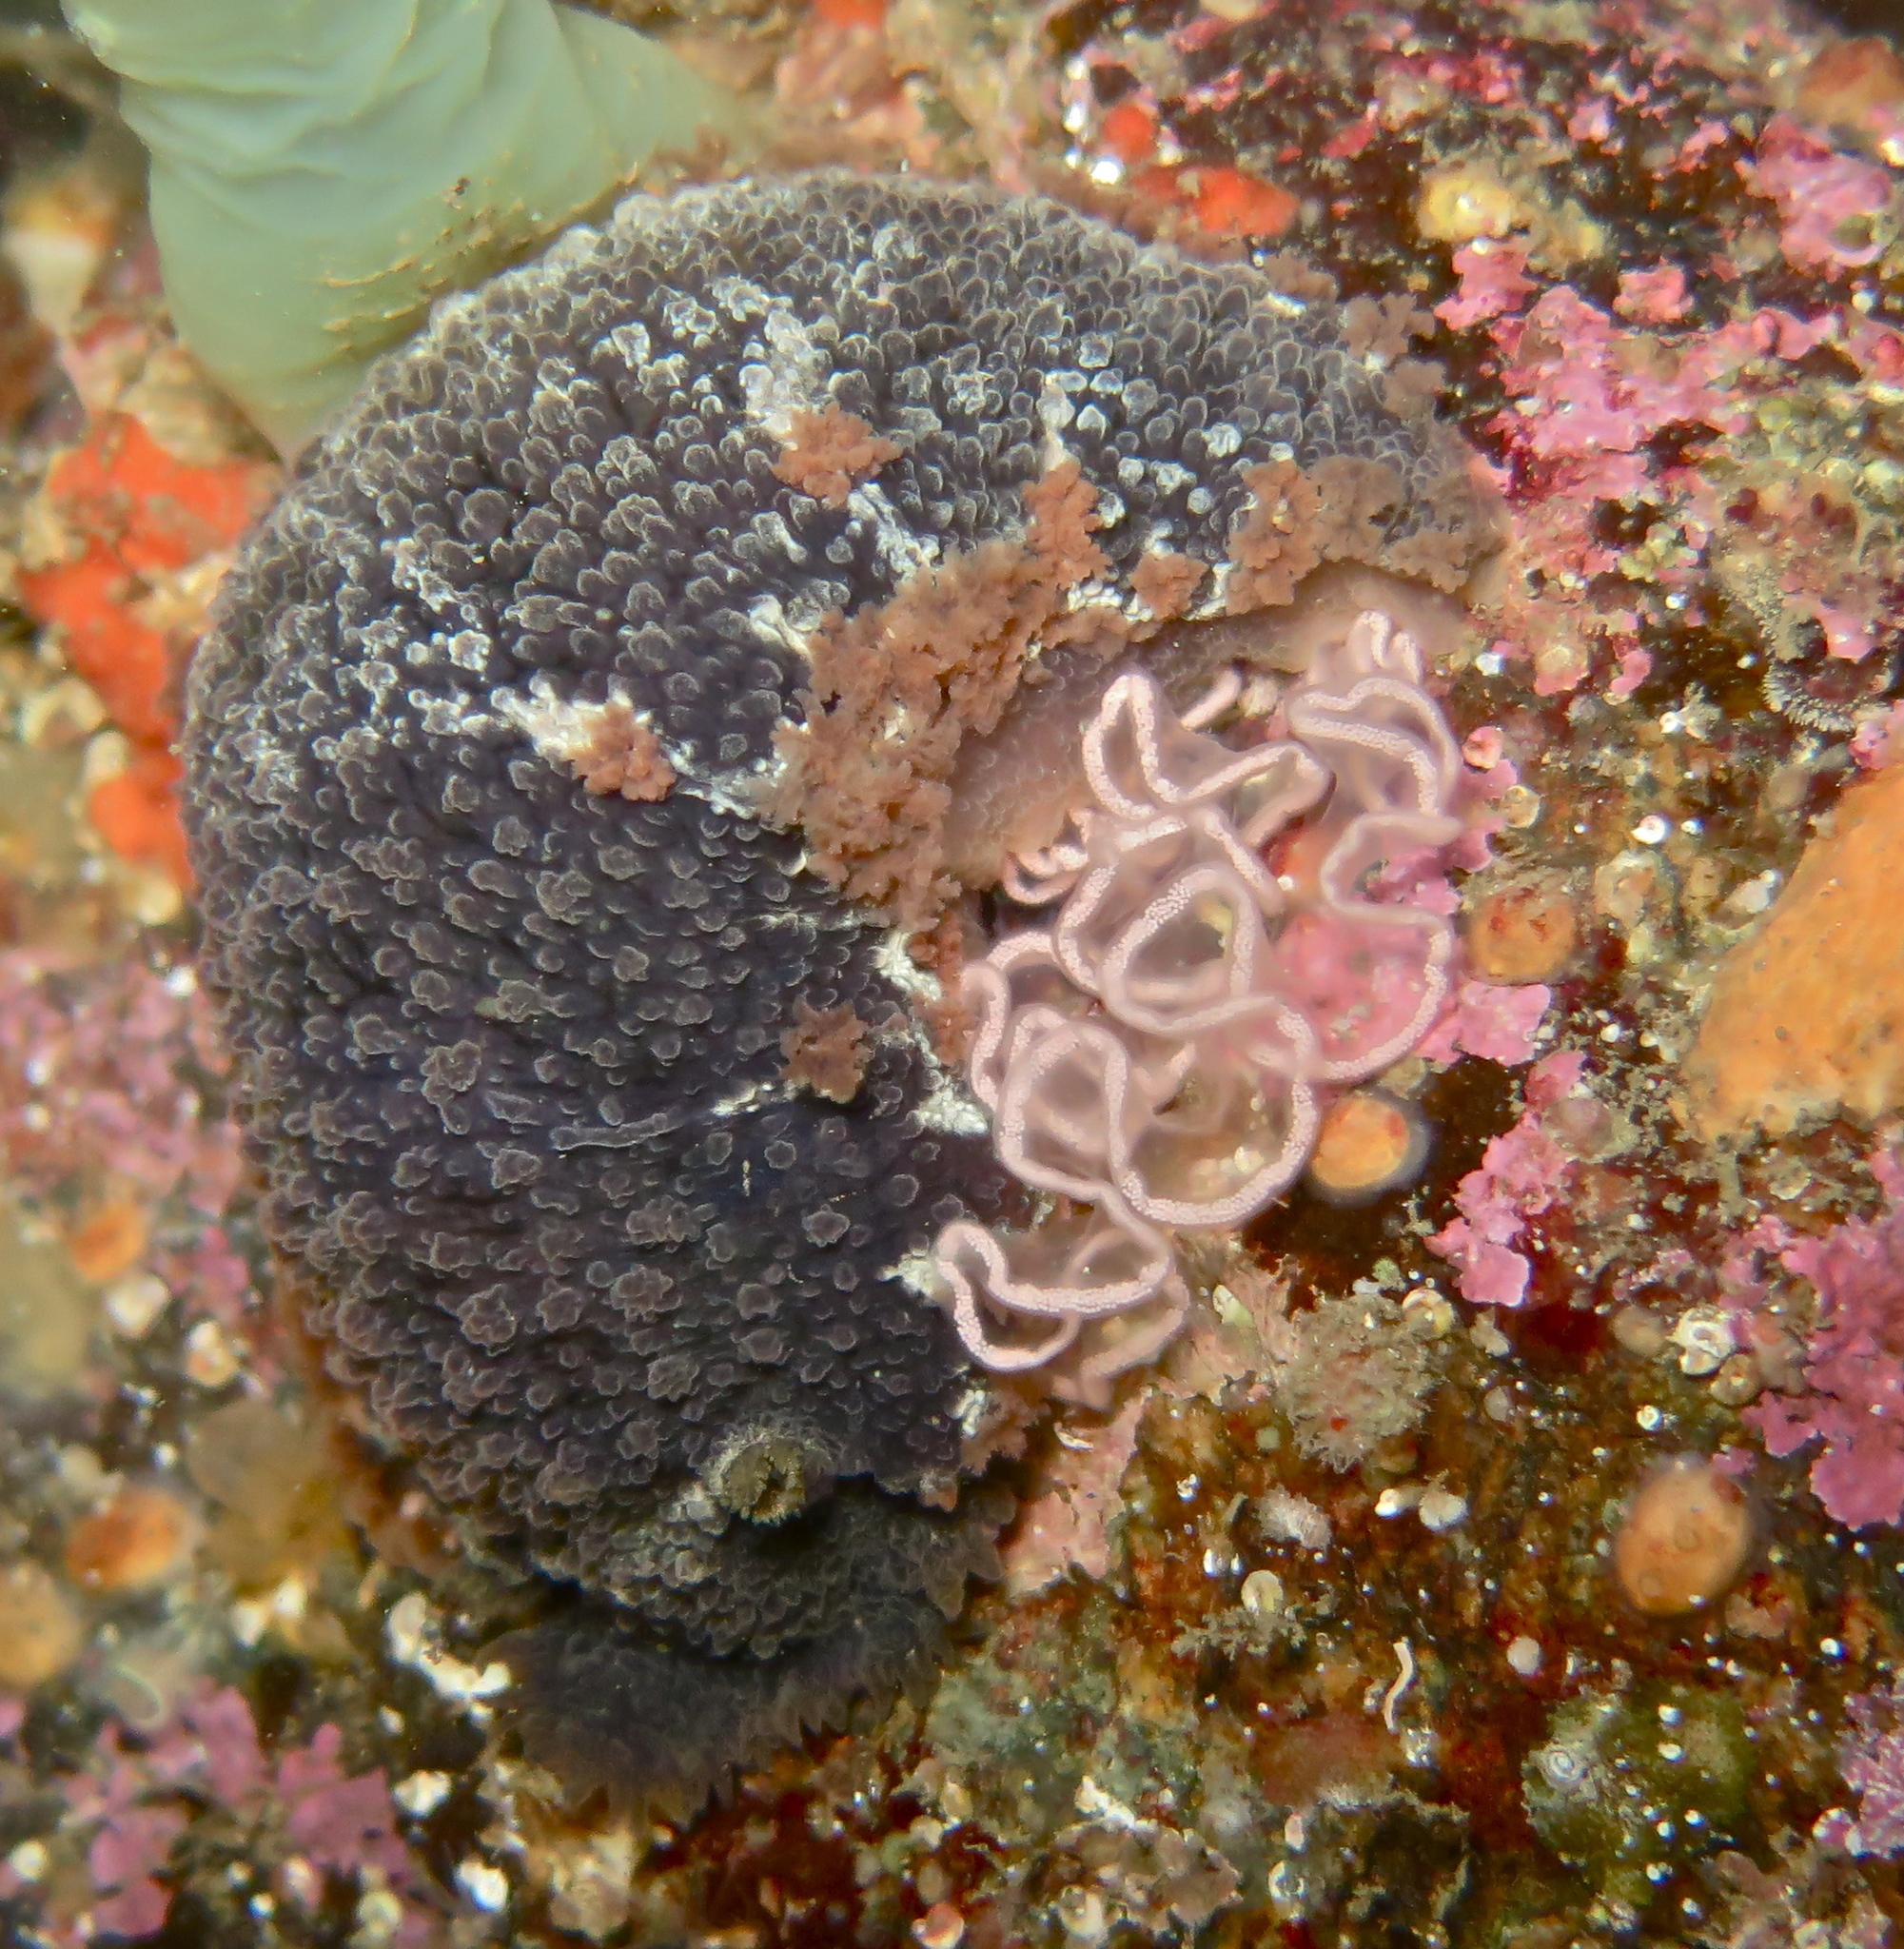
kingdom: Animalia
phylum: Mollusca
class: Gastropoda
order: Nudibranchia
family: Tritoniidae
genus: Tritonia
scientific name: Tritonia hombergii
